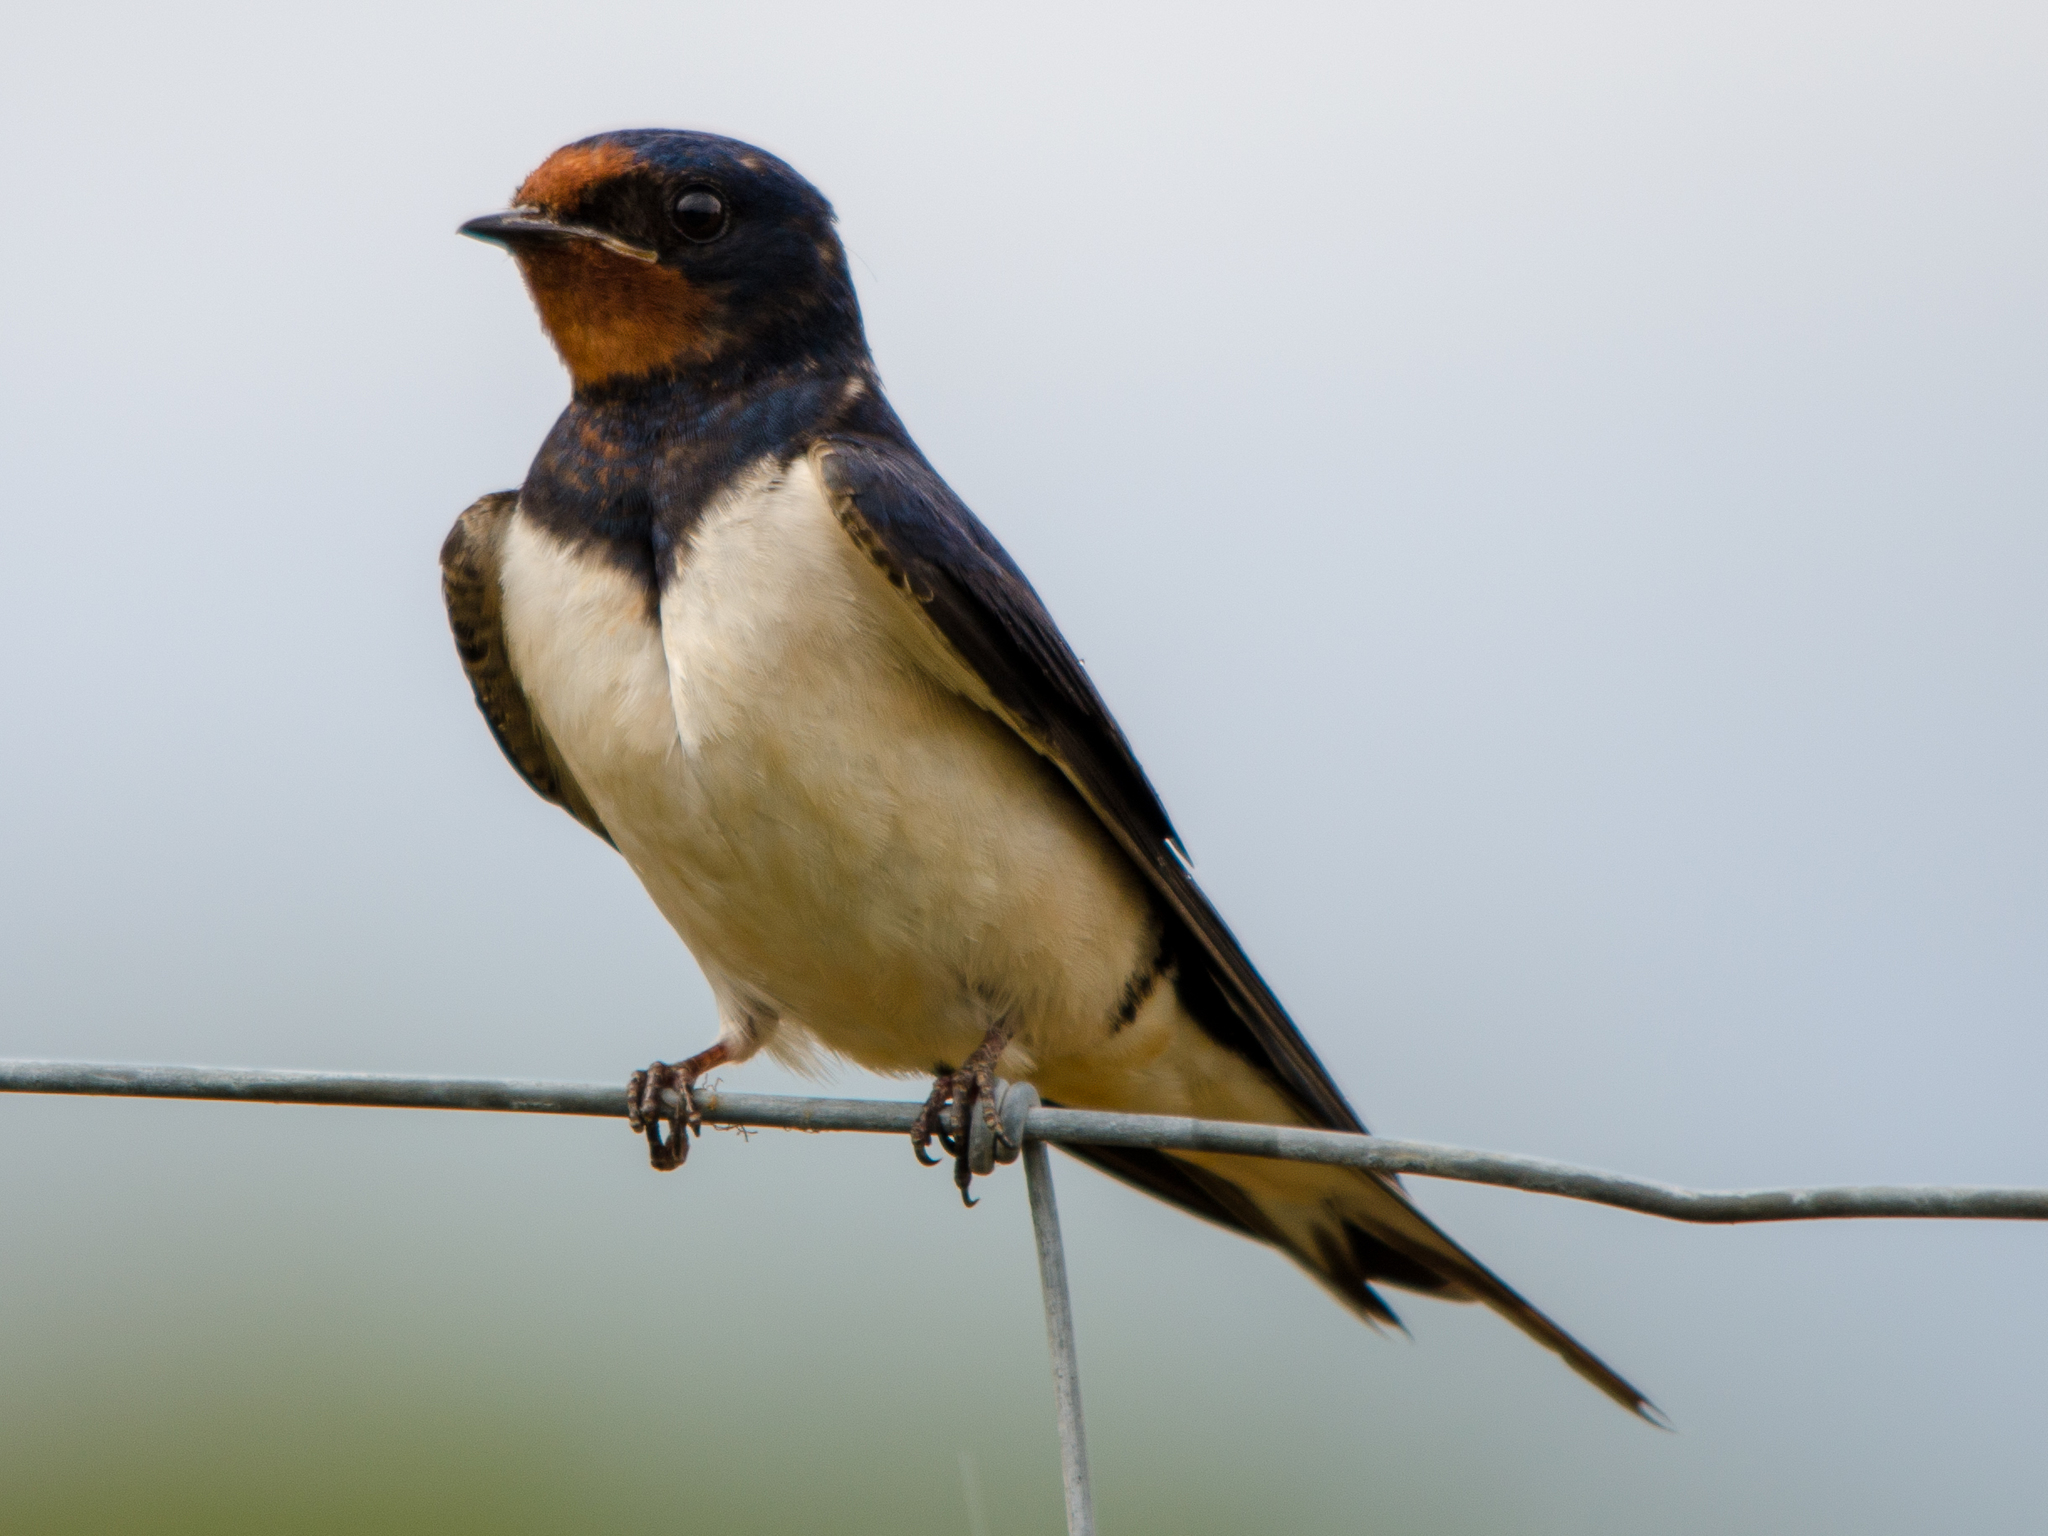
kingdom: Animalia
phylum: Chordata
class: Aves
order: Passeriformes
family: Hirundinidae
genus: Hirundo
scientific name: Hirundo rustica
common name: Barn swallow
